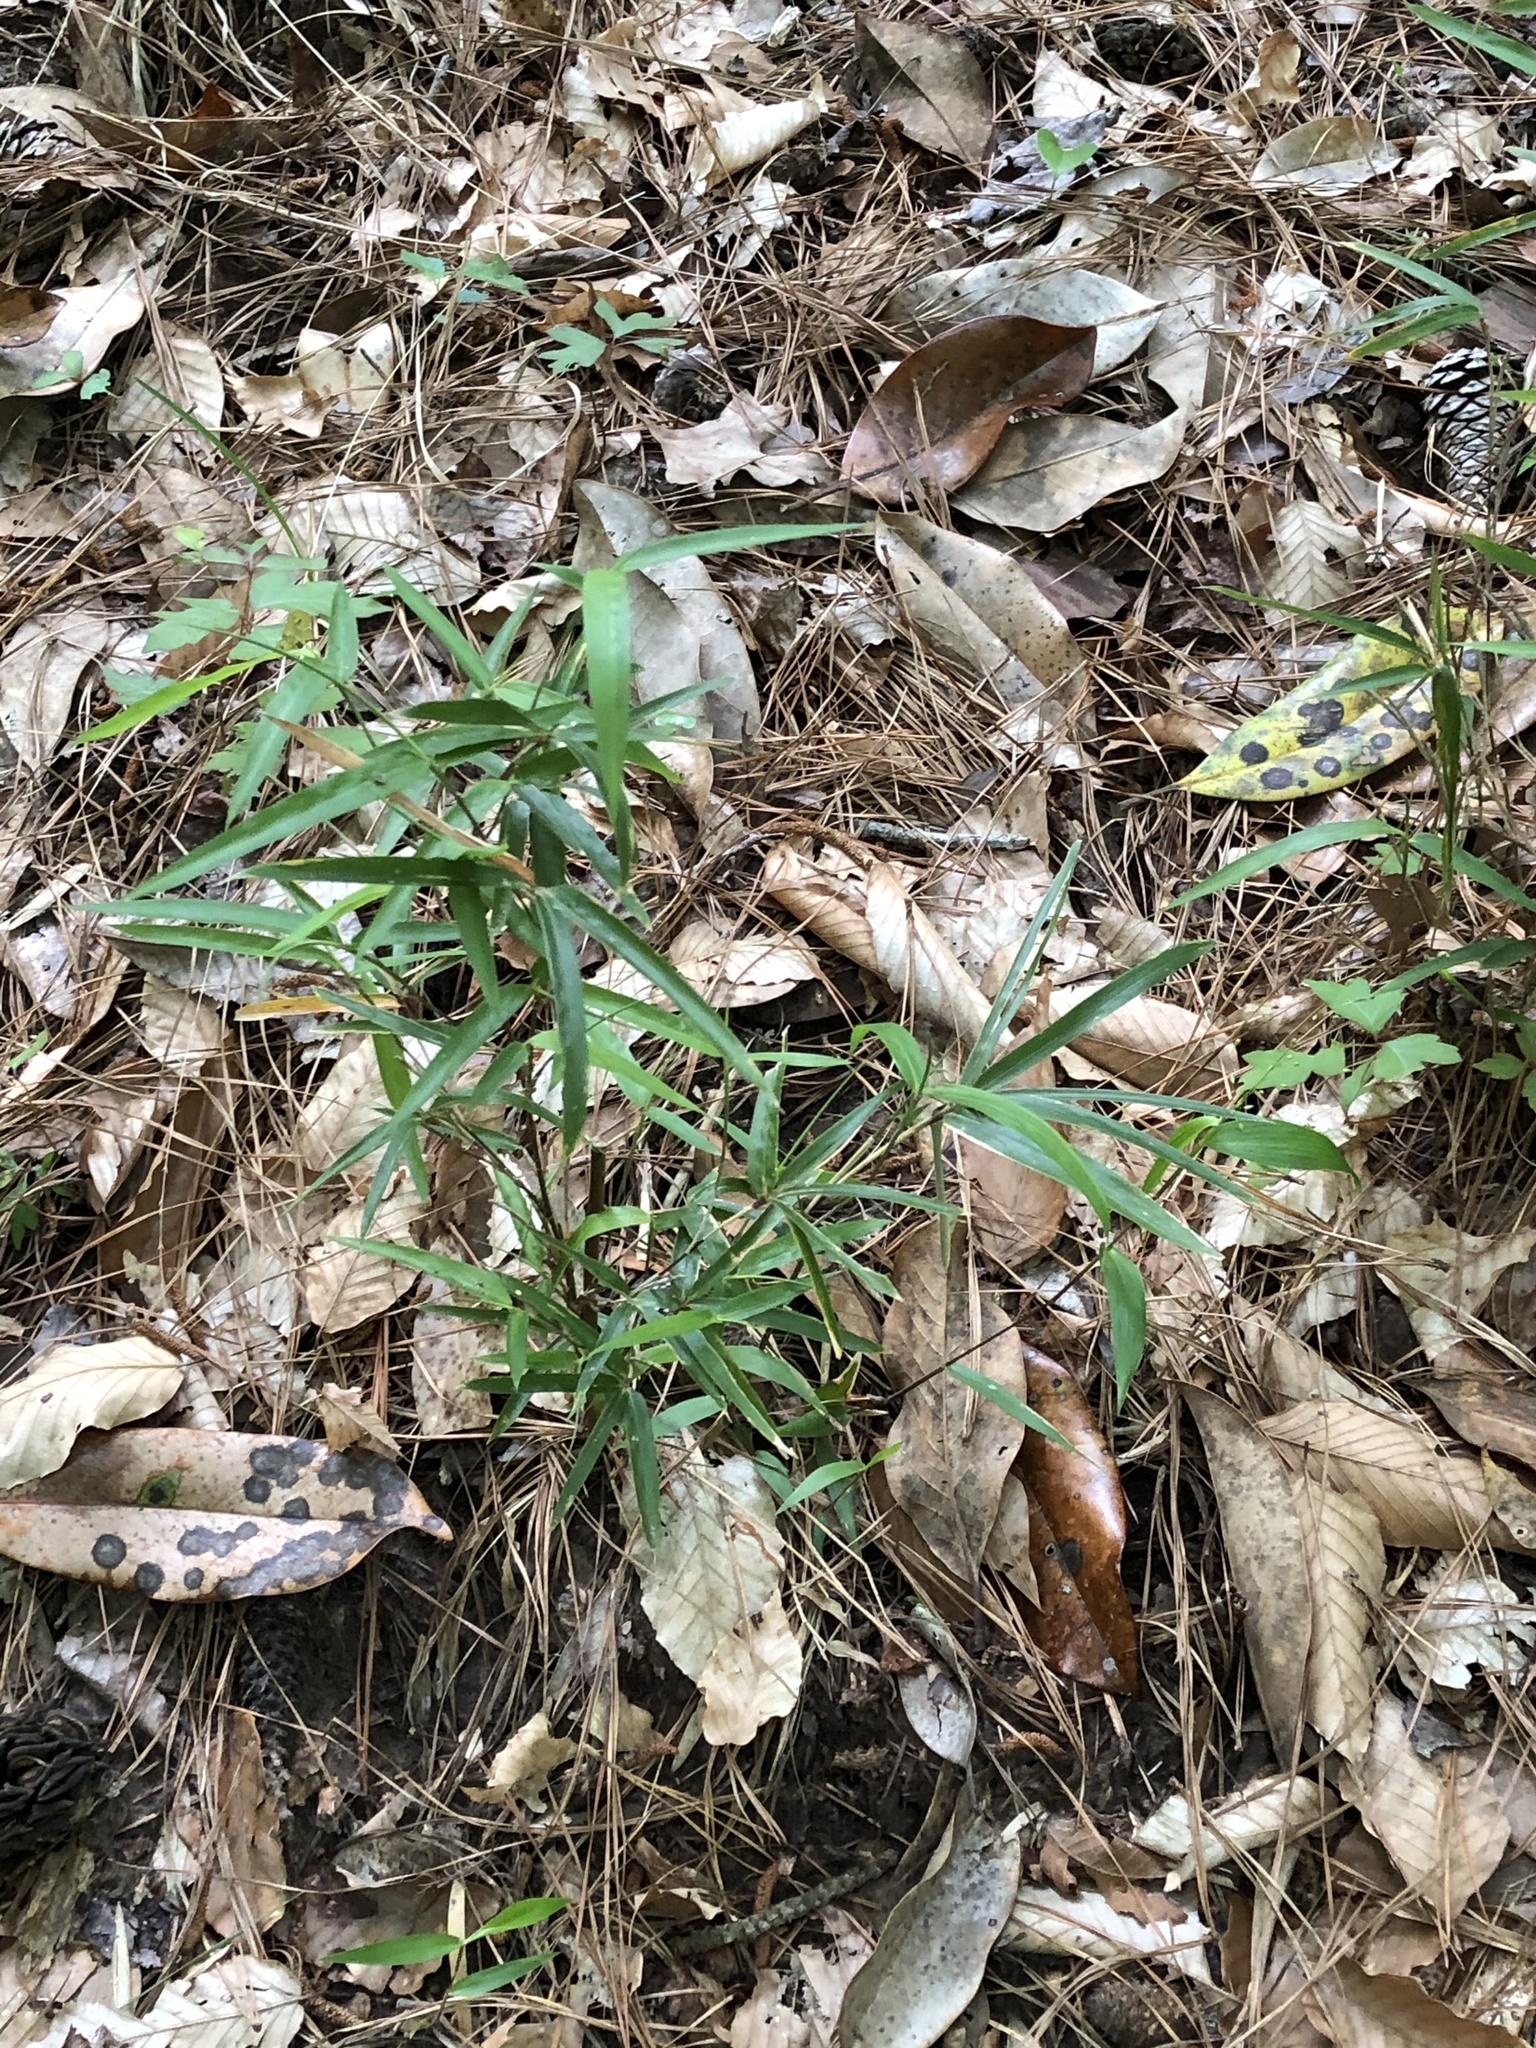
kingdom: Plantae
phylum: Tracheophyta
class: Liliopsida
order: Poales
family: Poaceae
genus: Arundinaria
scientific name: Arundinaria gigantea
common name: Giant cane
